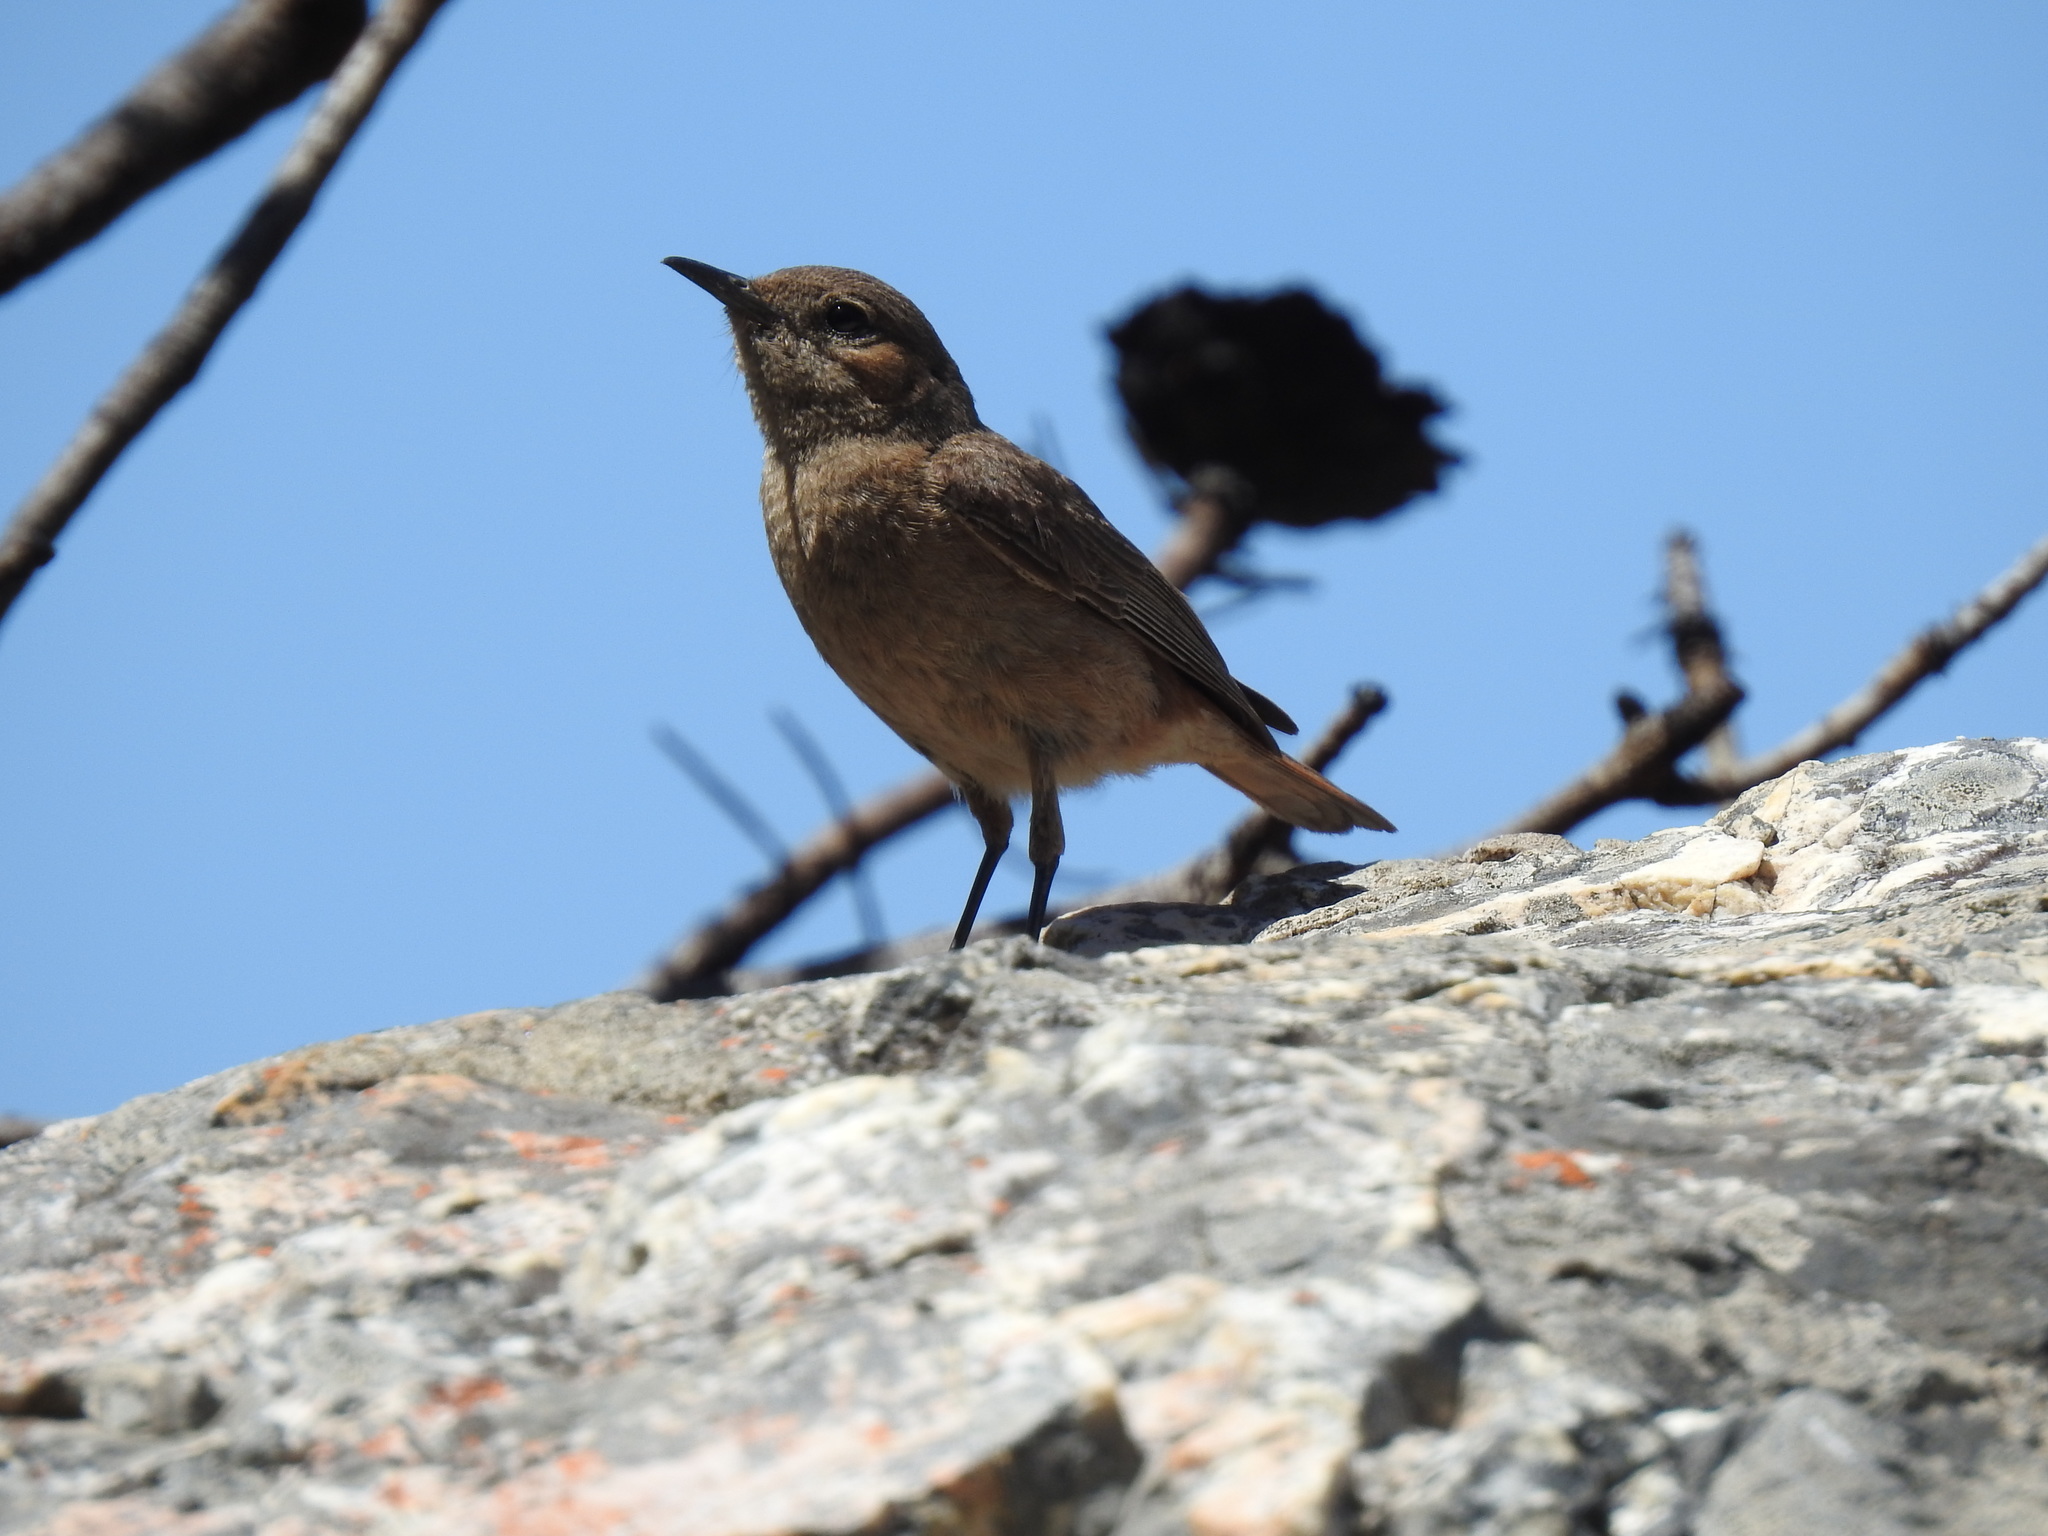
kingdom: Animalia
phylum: Chordata
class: Aves
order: Passeriformes
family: Muscicapidae
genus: Oenanthe
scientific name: Oenanthe familiaris
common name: Familiar chat
